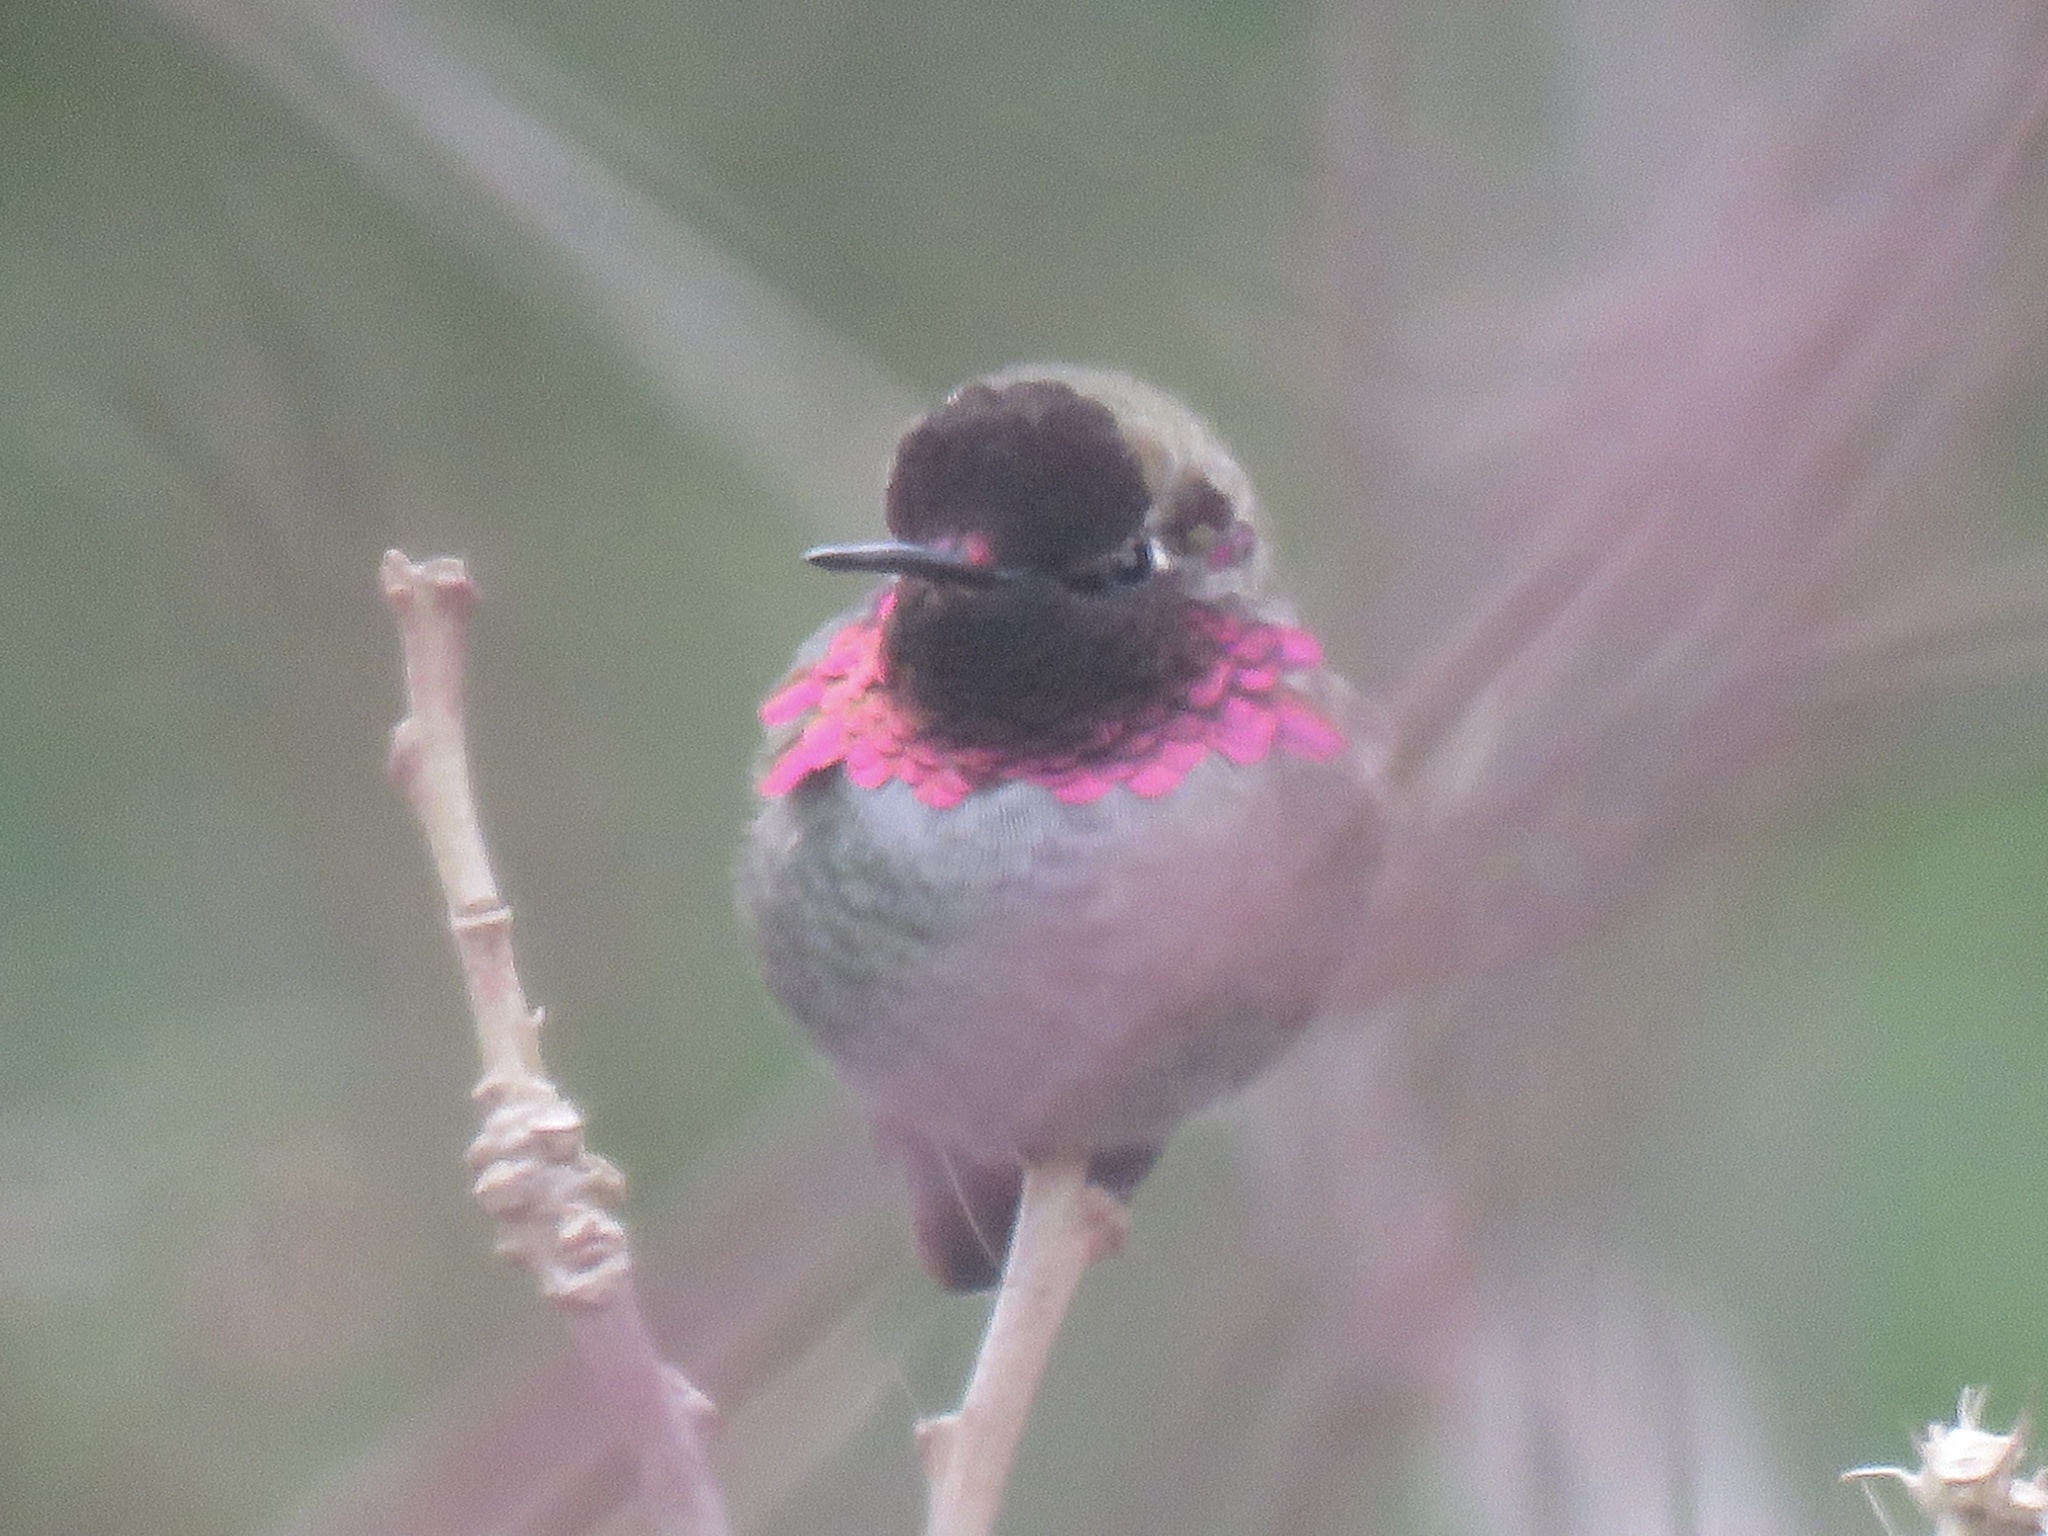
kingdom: Animalia
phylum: Chordata
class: Aves
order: Apodiformes
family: Trochilidae
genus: Calypte
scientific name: Calypte anna
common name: Anna's hummingbird
